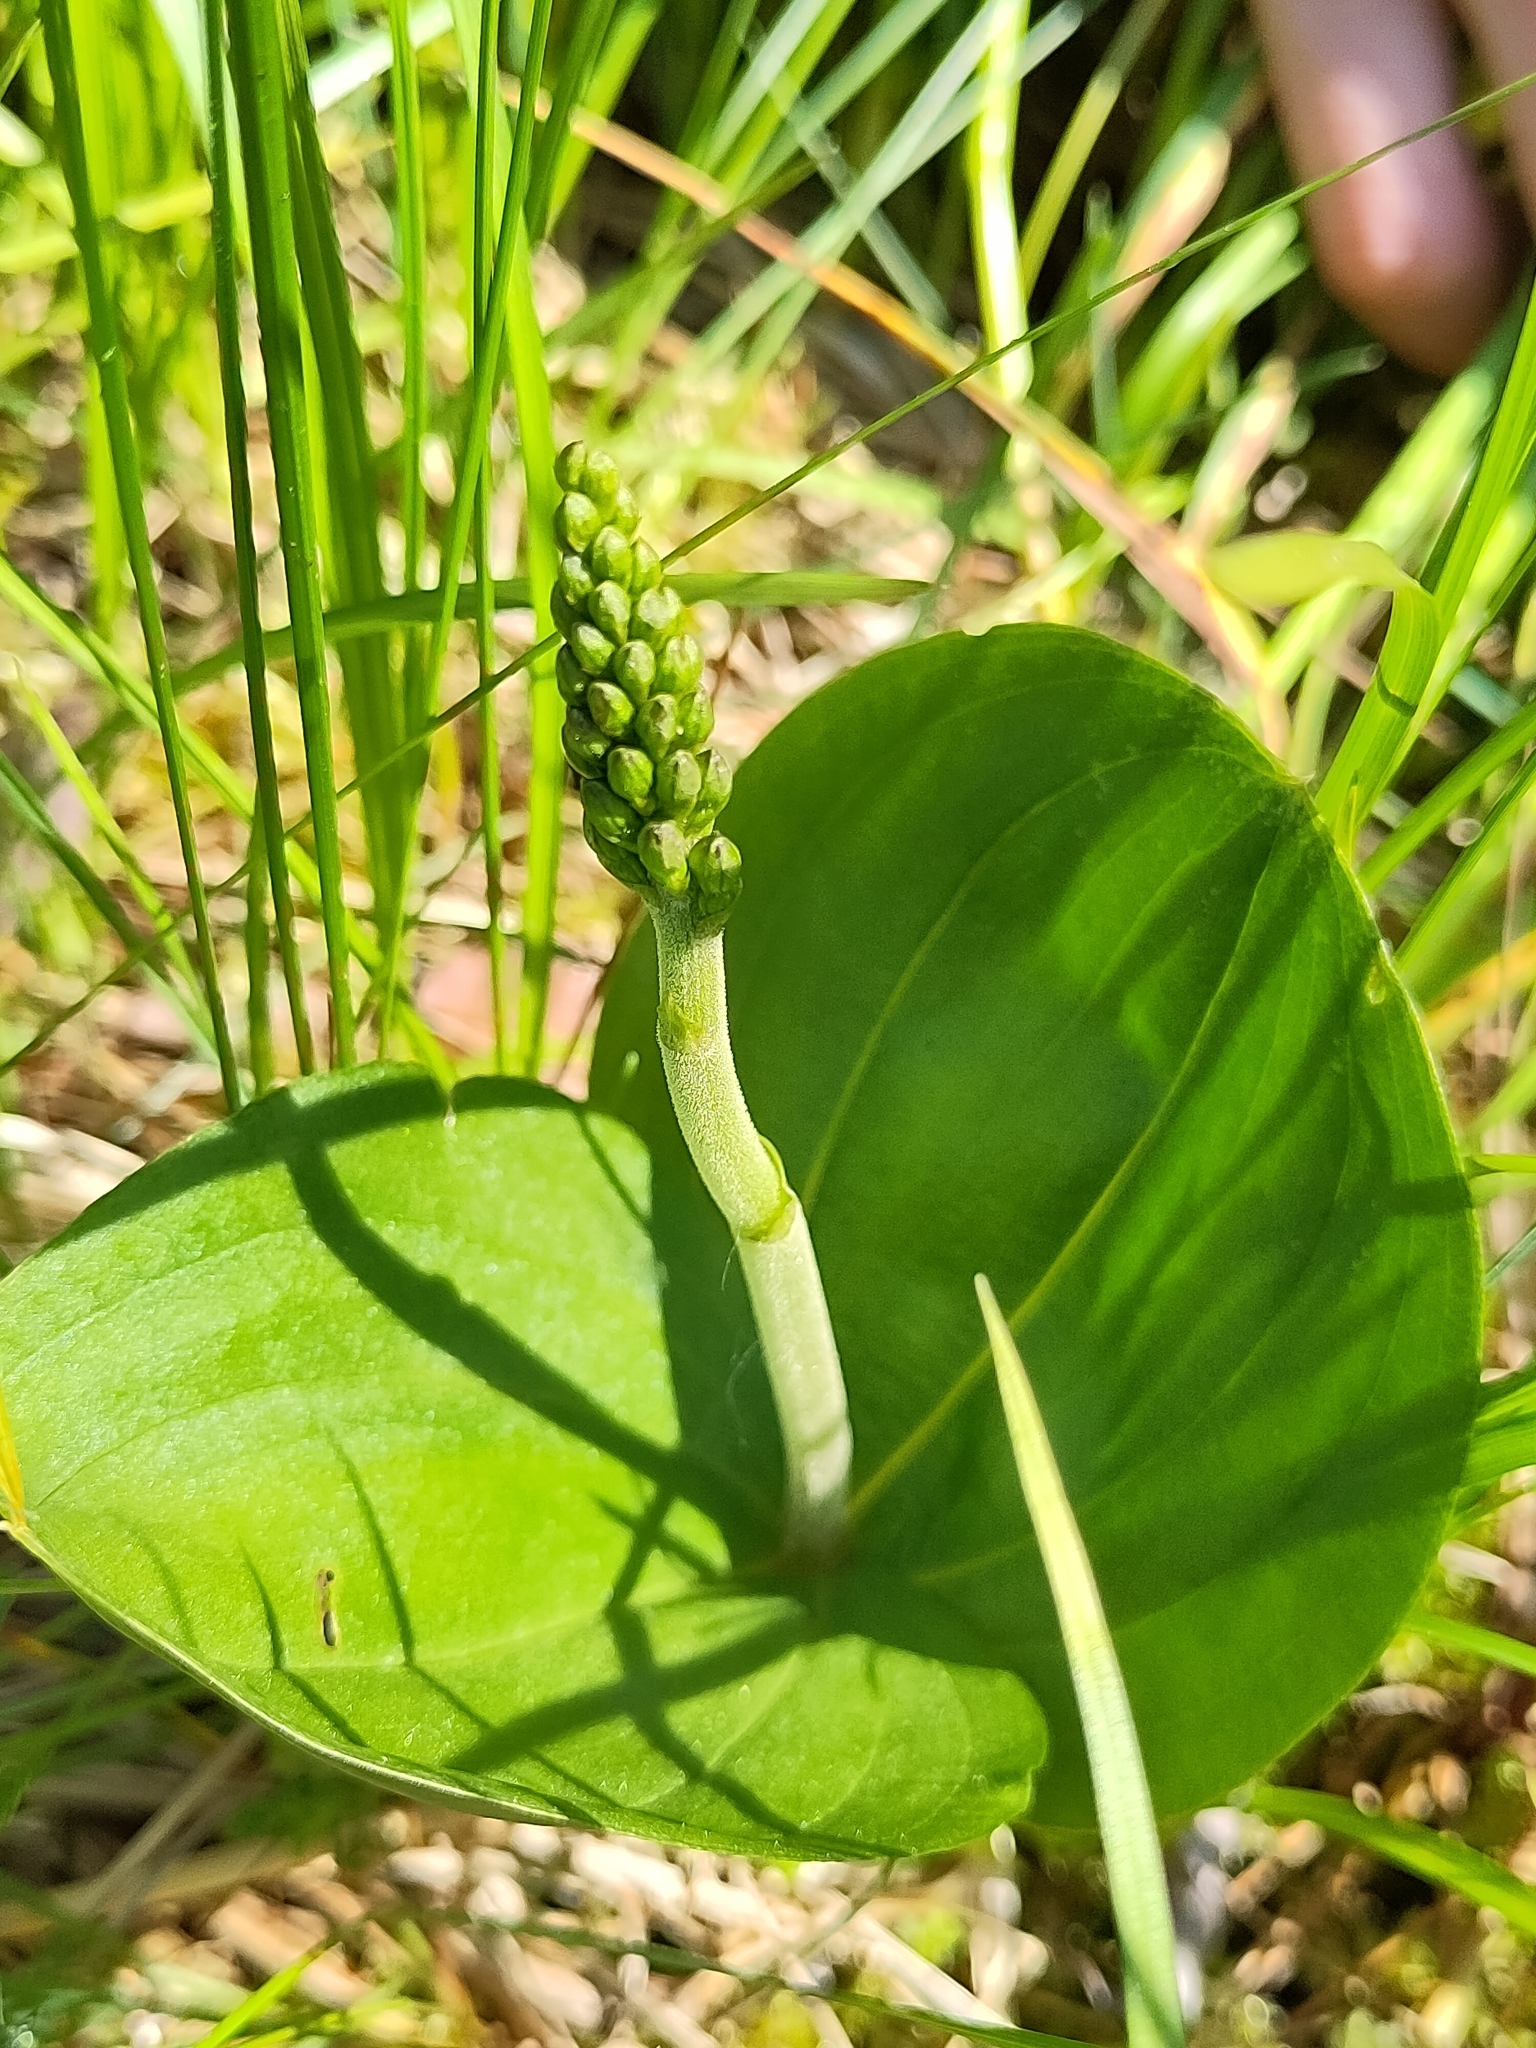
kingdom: Plantae
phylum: Tracheophyta
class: Liliopsida
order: Asparagales
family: Orchidaceae
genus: Neottia
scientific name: Neottia ovata
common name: Common twayblade
